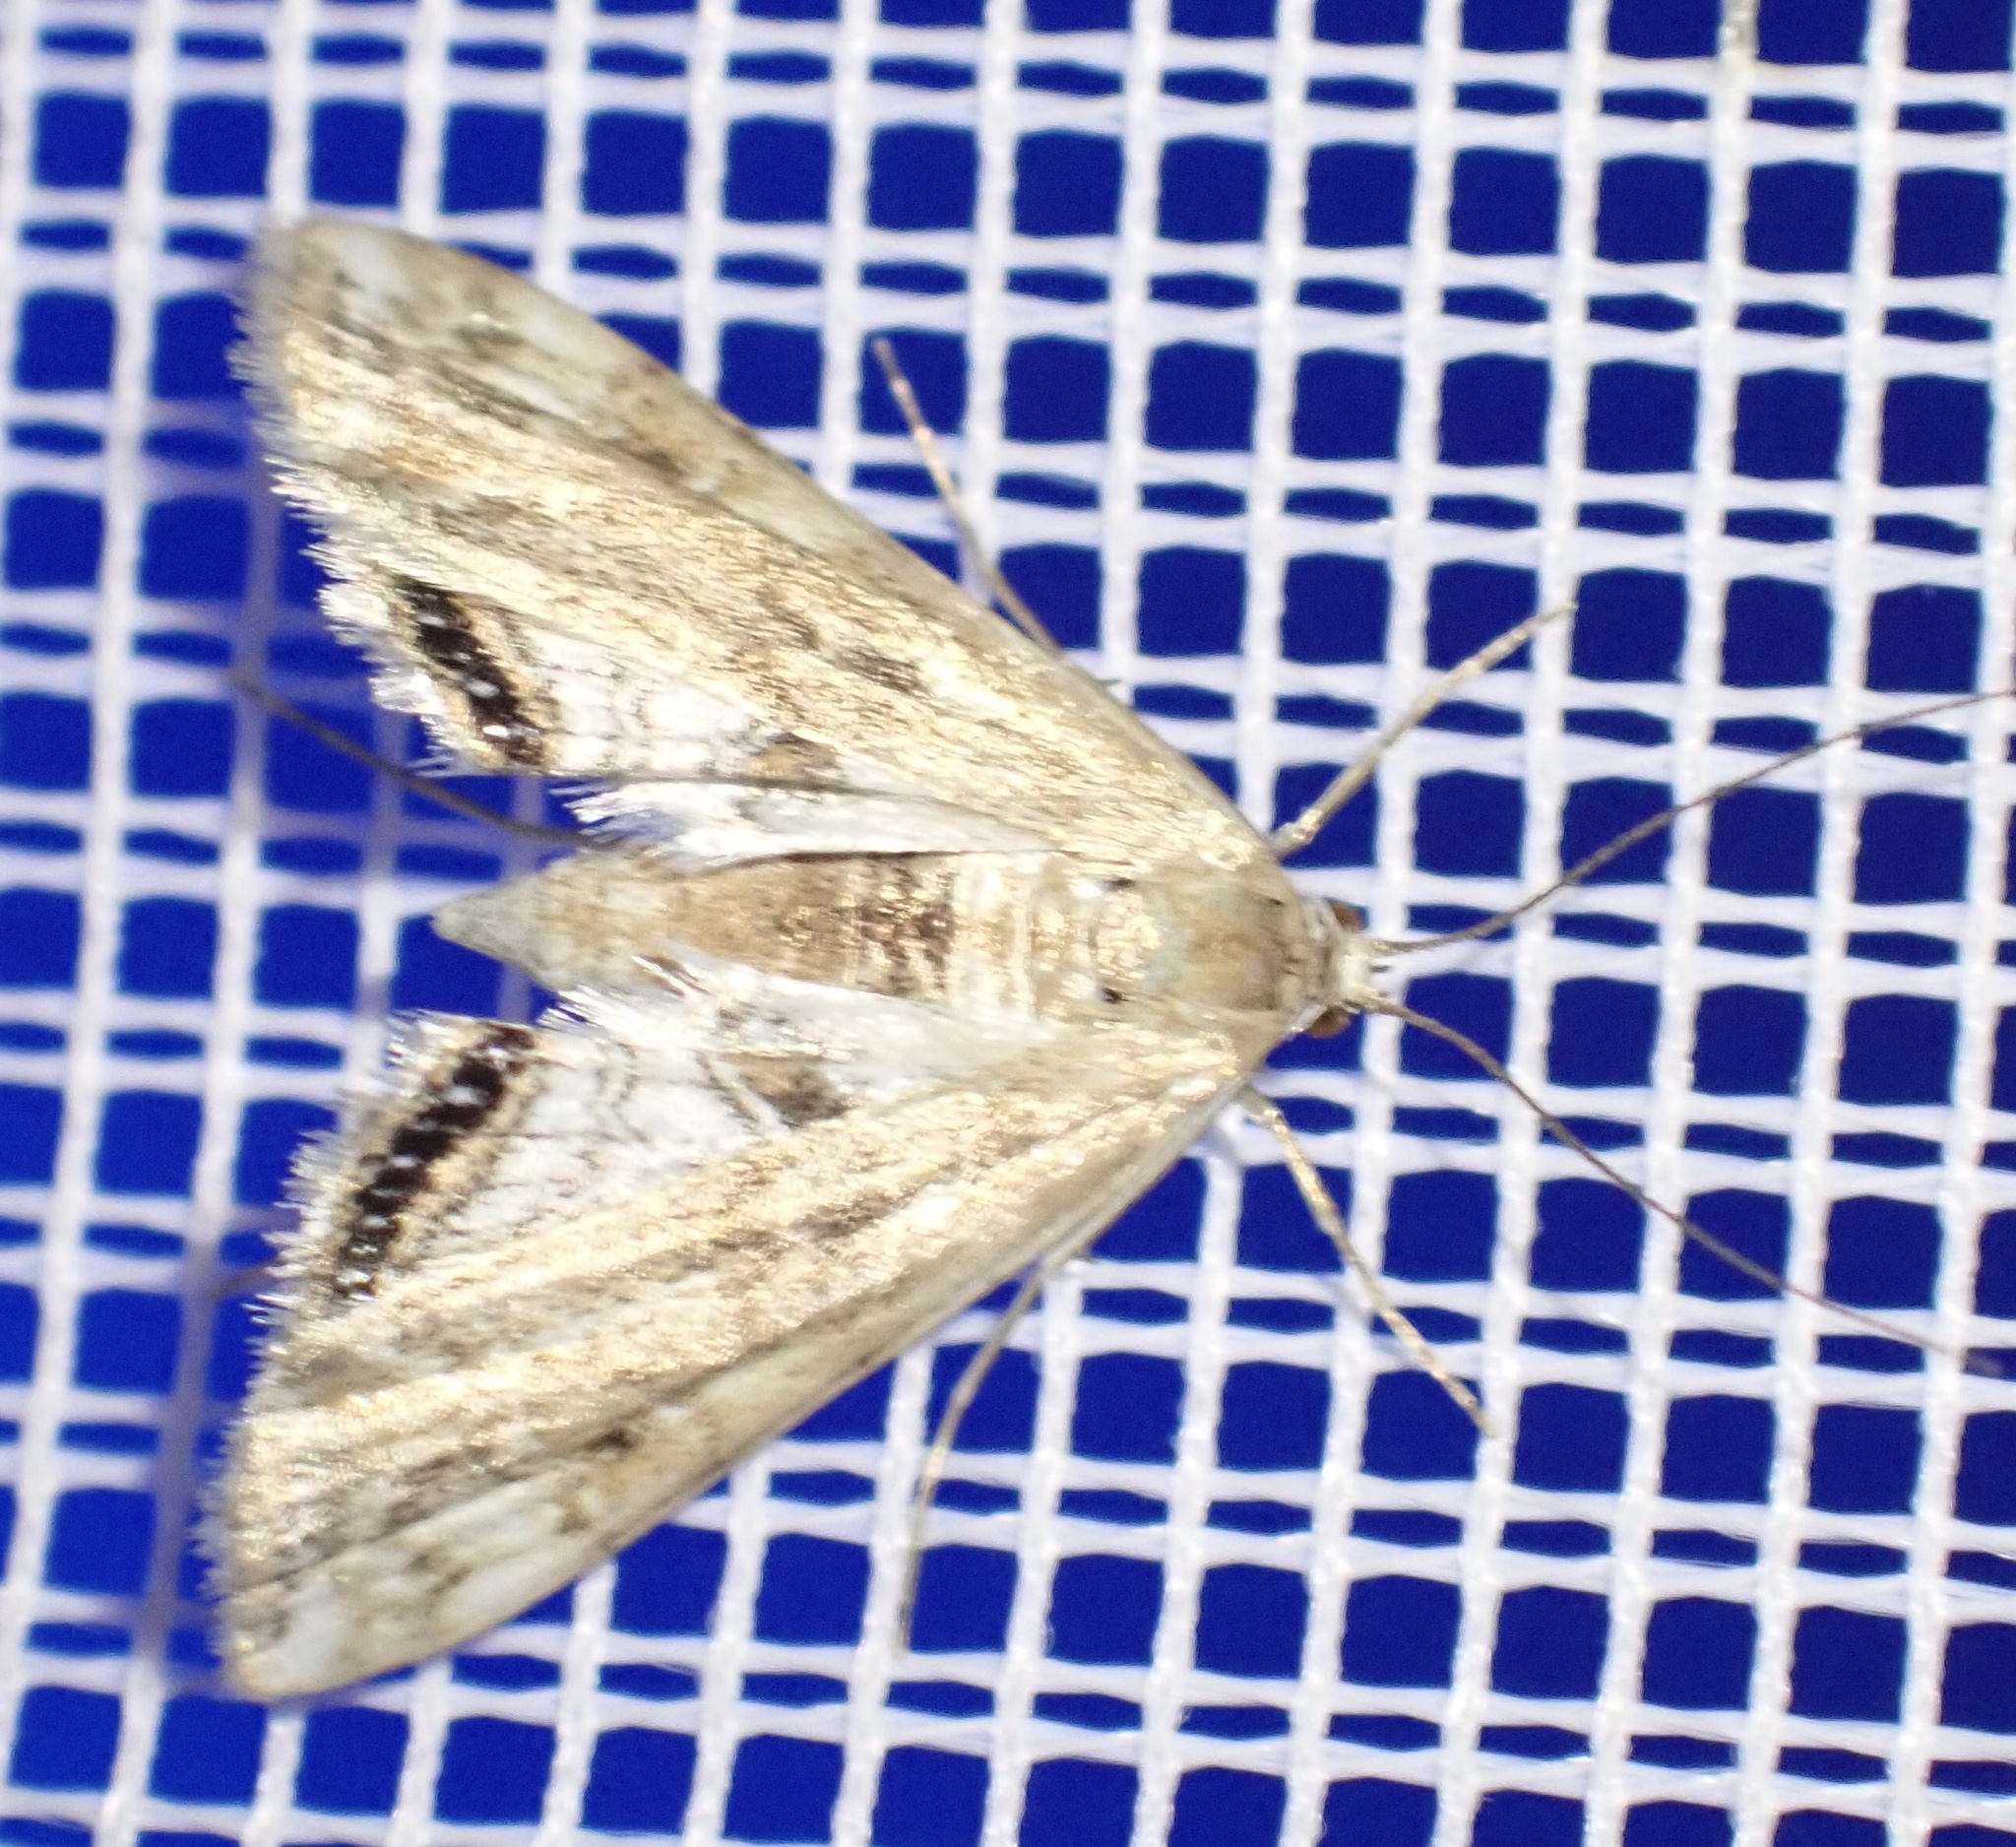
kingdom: Animalia
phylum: Arthropoda
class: Insecta
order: Lepidoptera
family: Crambidae
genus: Cataclysta
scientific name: Cataclysta lemnata
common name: Small china-mark
